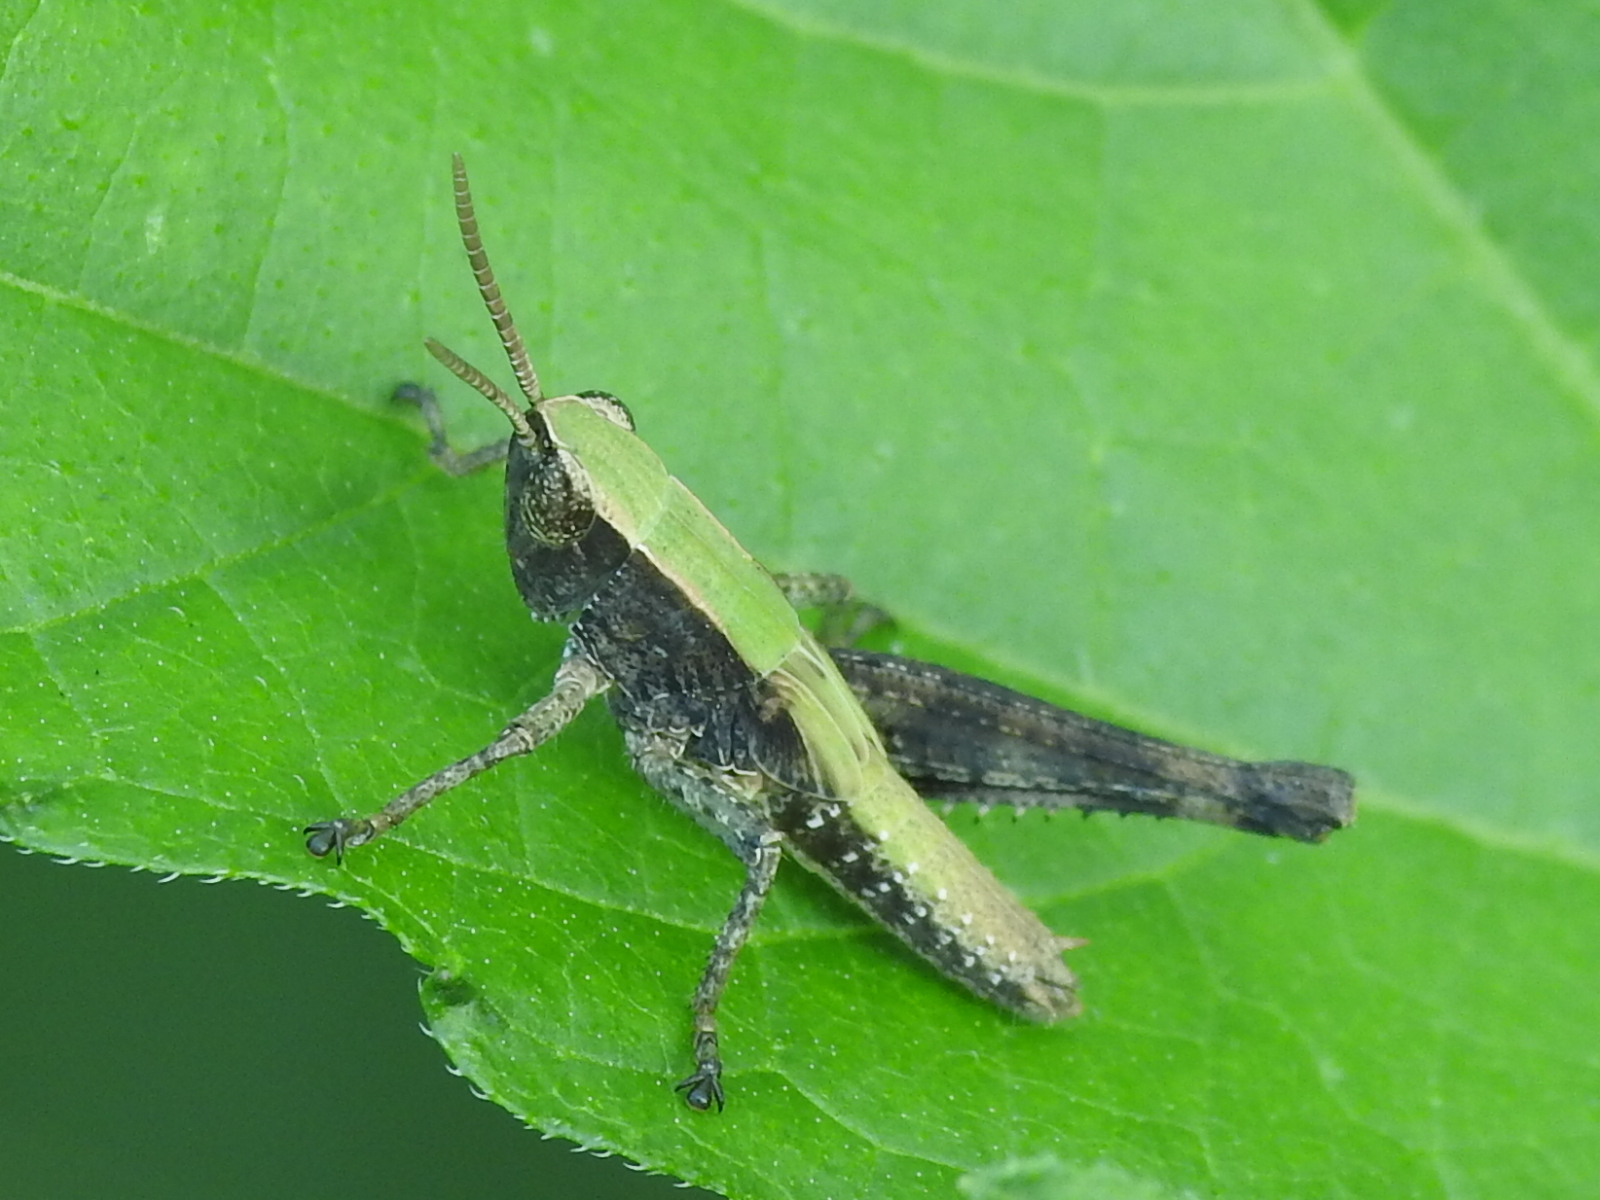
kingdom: Animalia
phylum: Arthropoda
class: Insecta
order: Orthoptera
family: Acrididae
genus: Dichromorpha
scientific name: Dichromorpha viridis
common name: Short-winged green grasshopper
